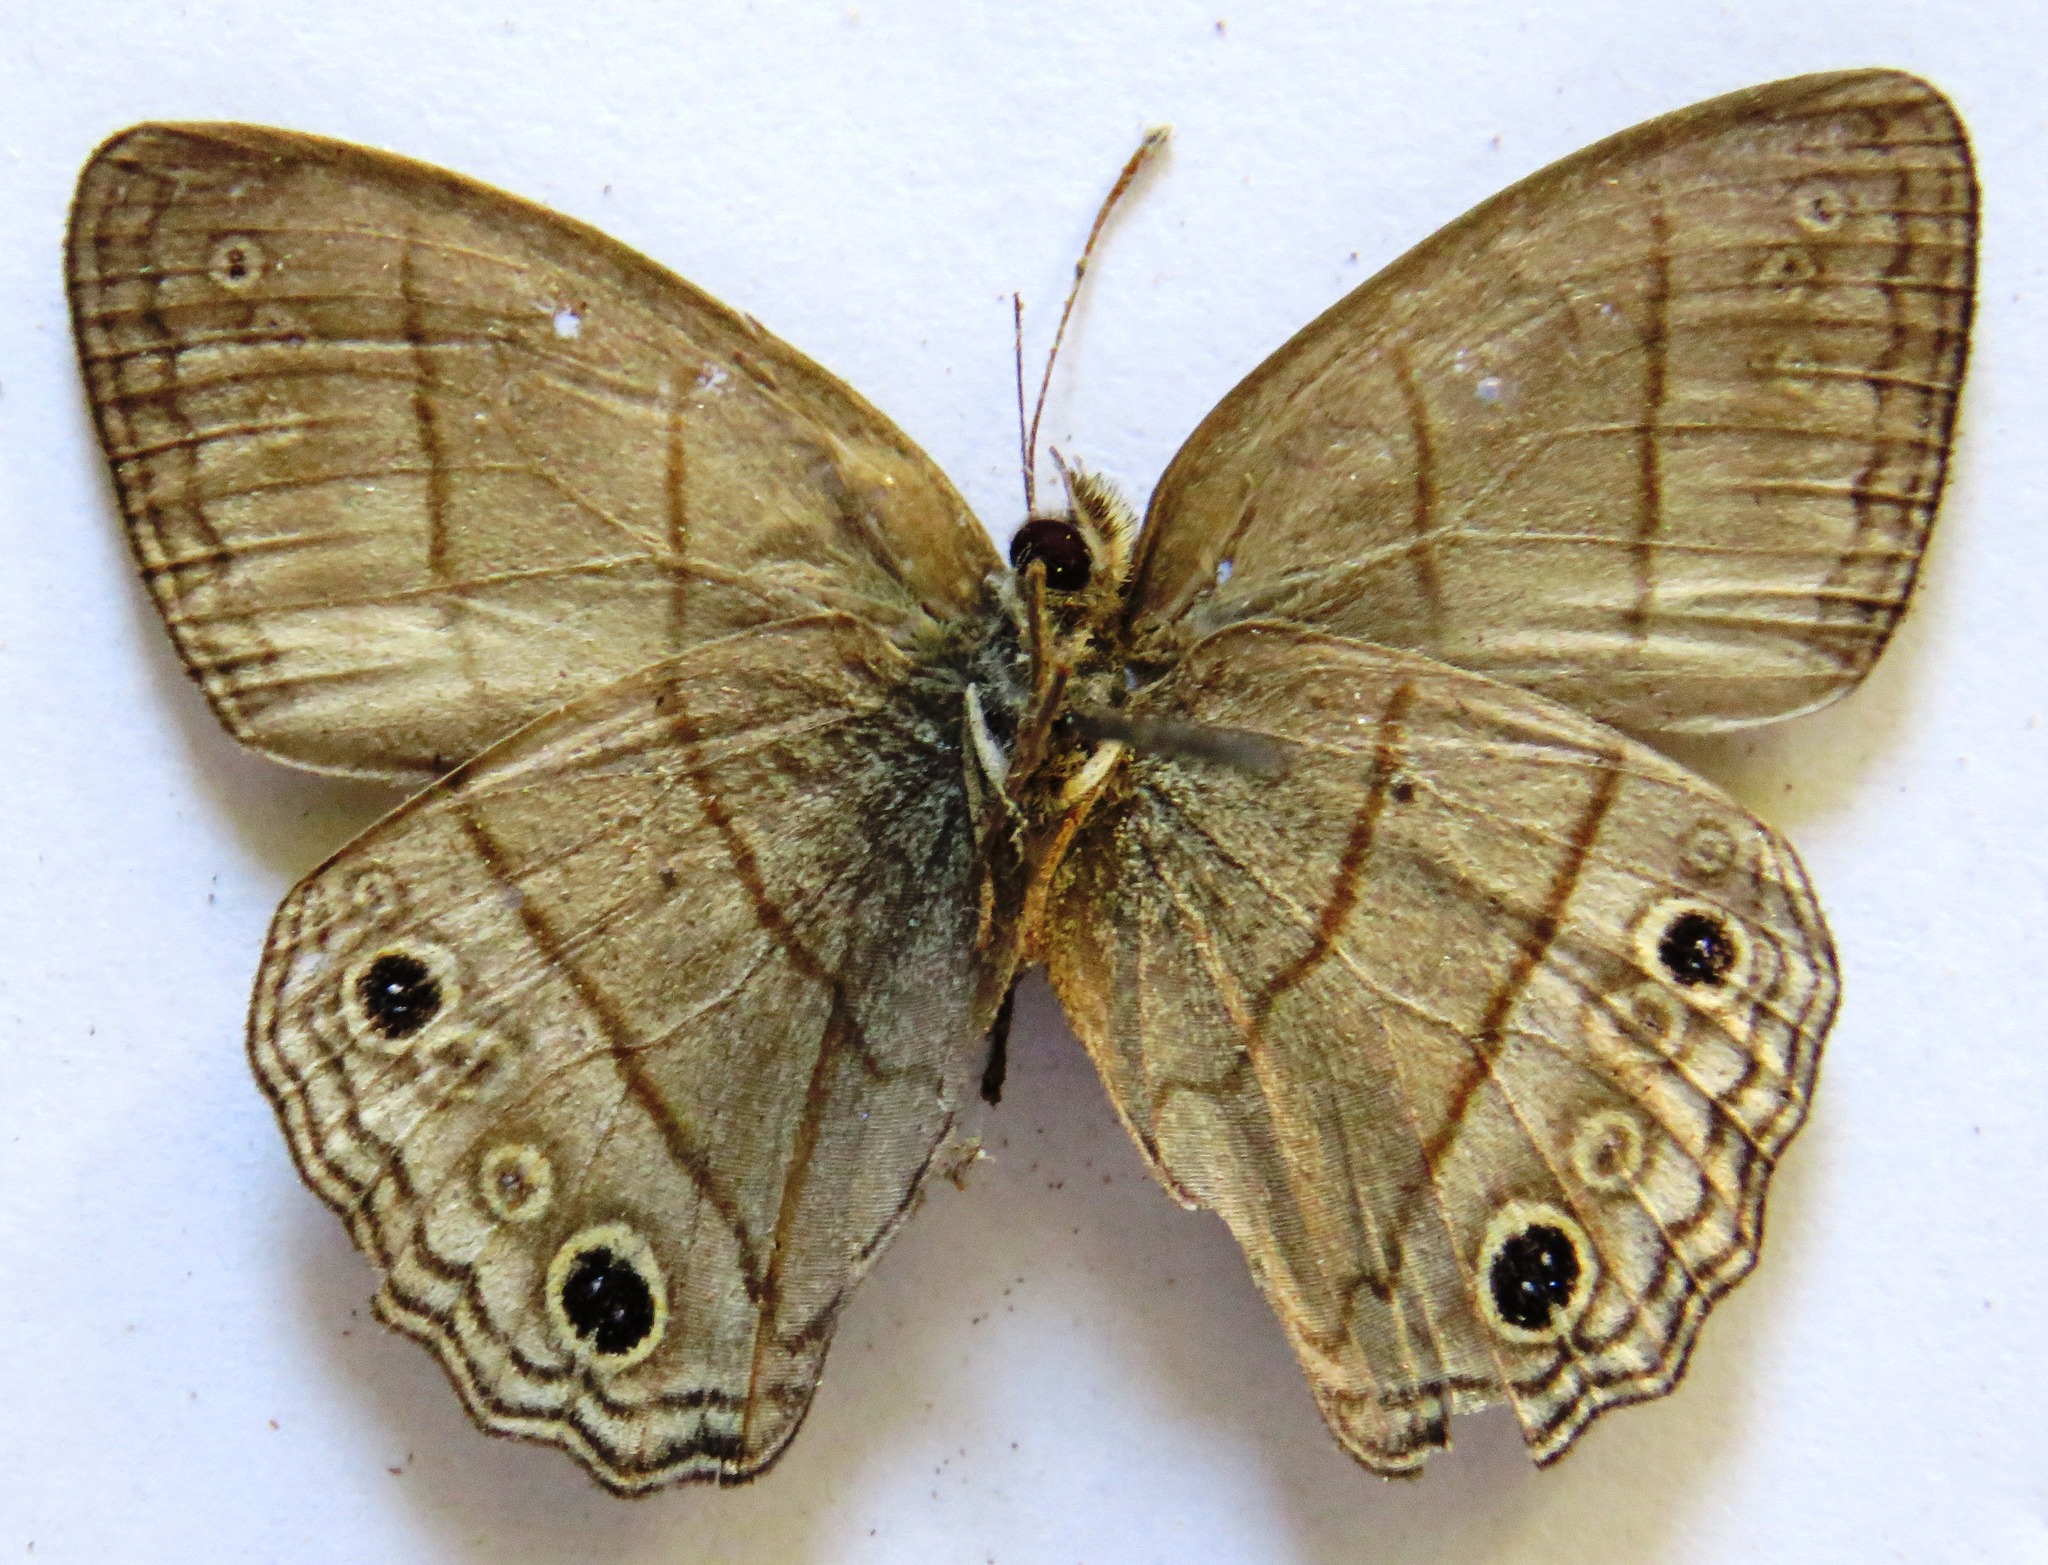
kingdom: Animalia
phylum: Arthropoda
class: Insecta
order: Lepidoptera
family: Nymphalidae
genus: Vareuptychia
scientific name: Vareuptychia similis
